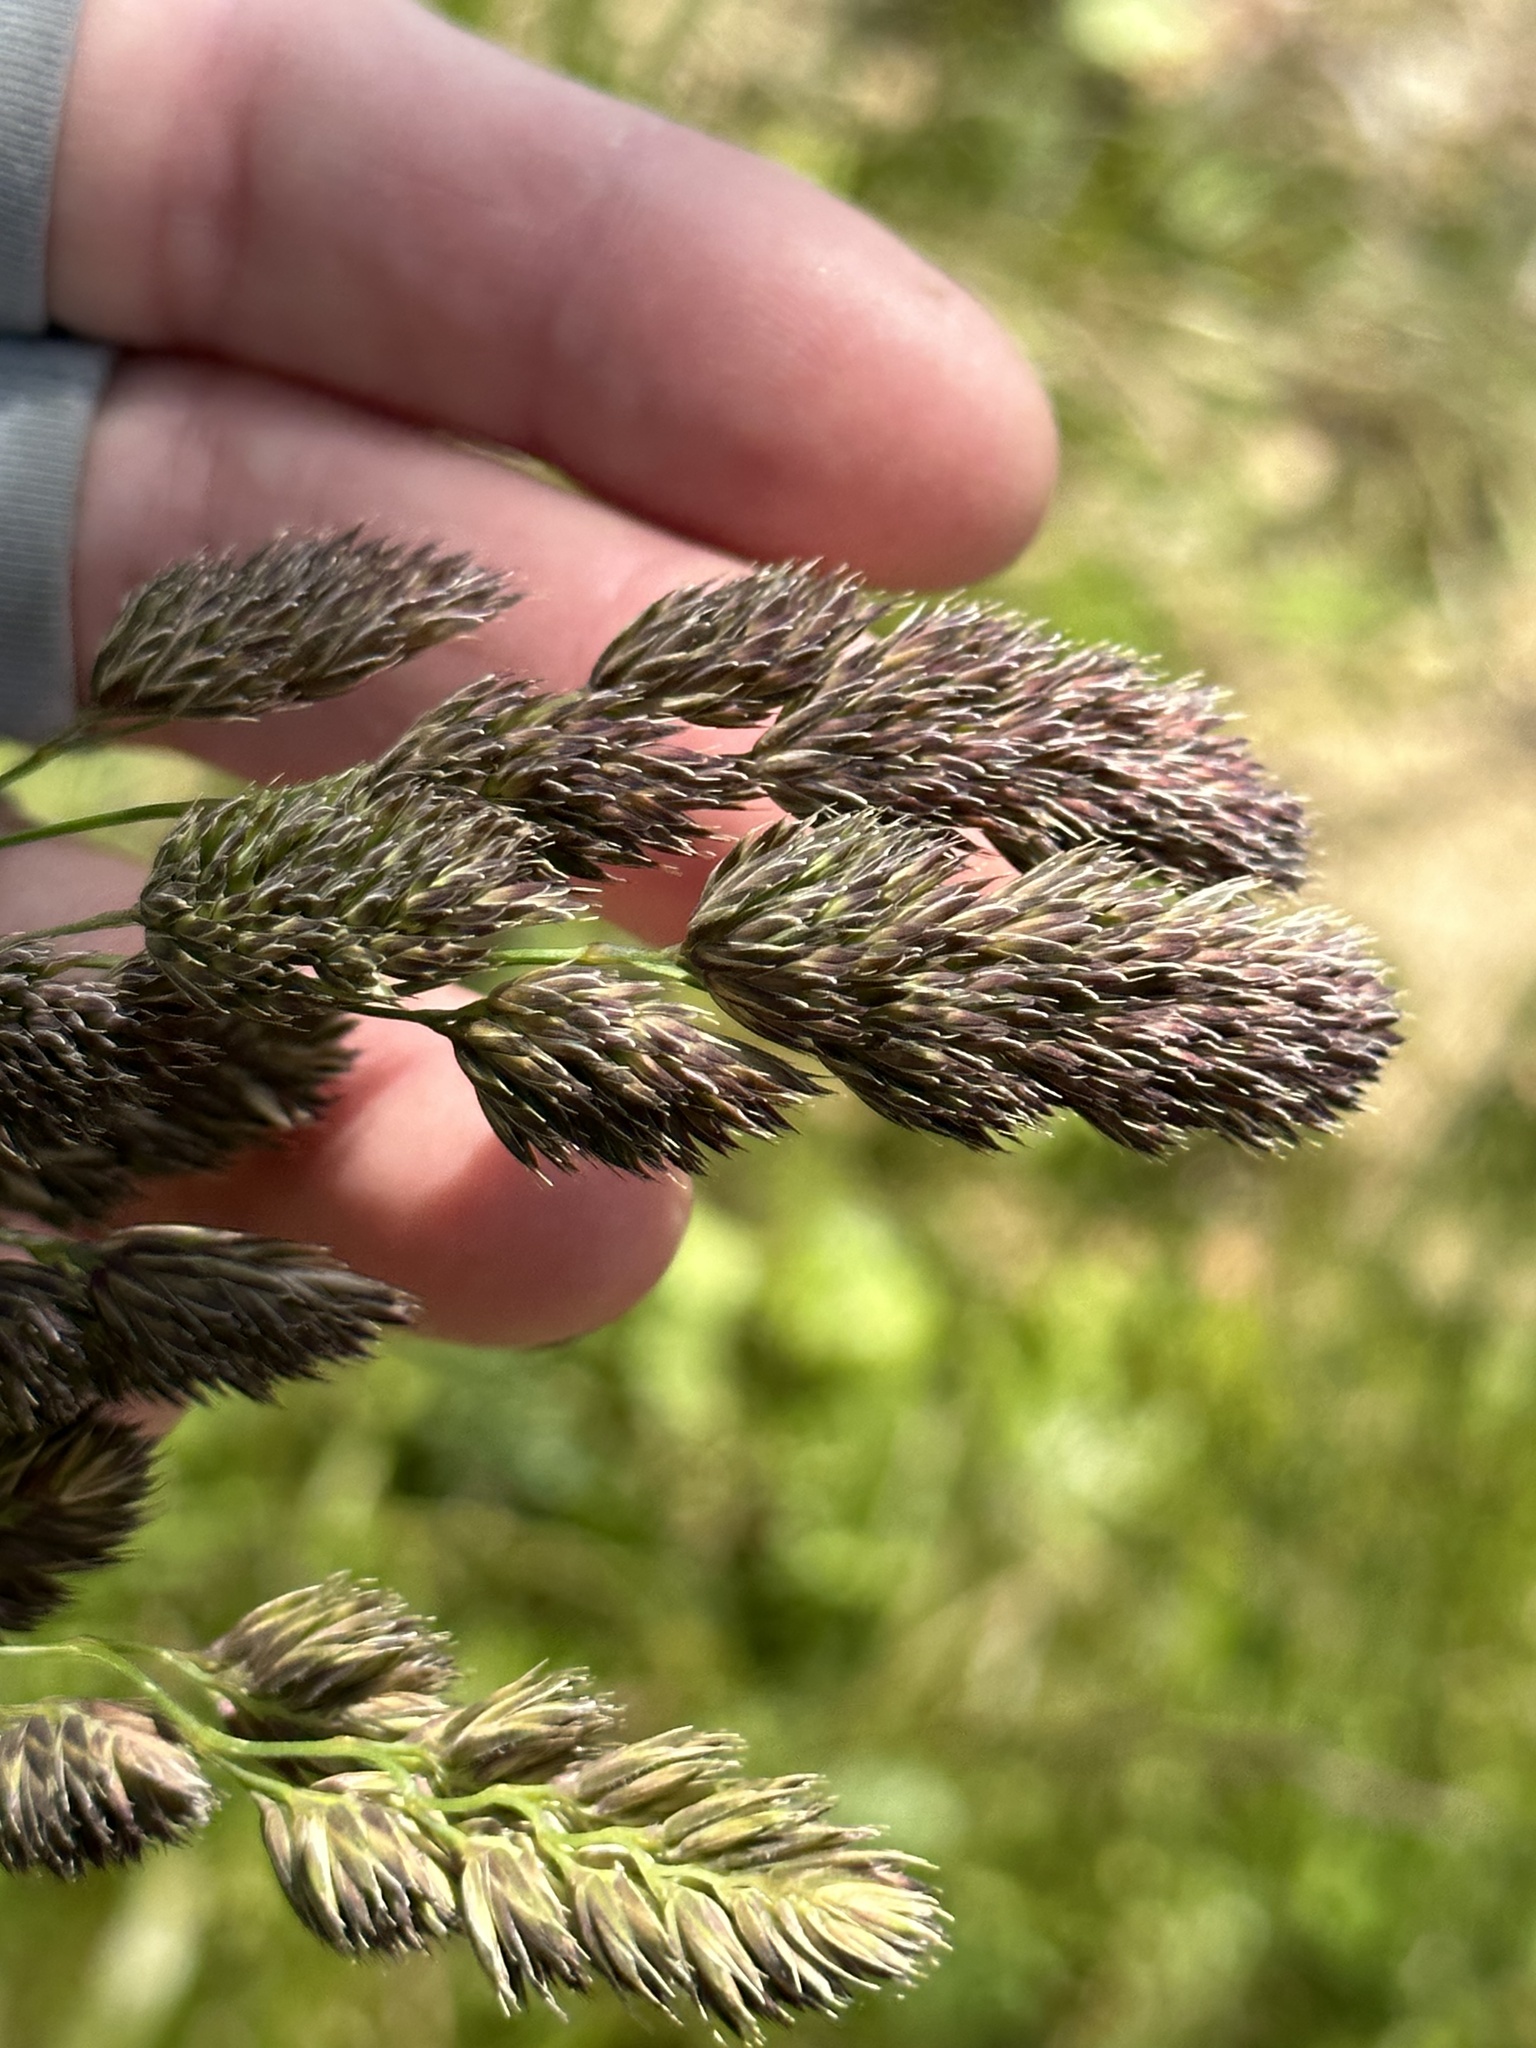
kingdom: Plantae
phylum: Tracheophyta
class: Liliopsida
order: Poales
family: Poaceae
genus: Dactylis
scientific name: Dactylis glomerata
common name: Orchardgrass
